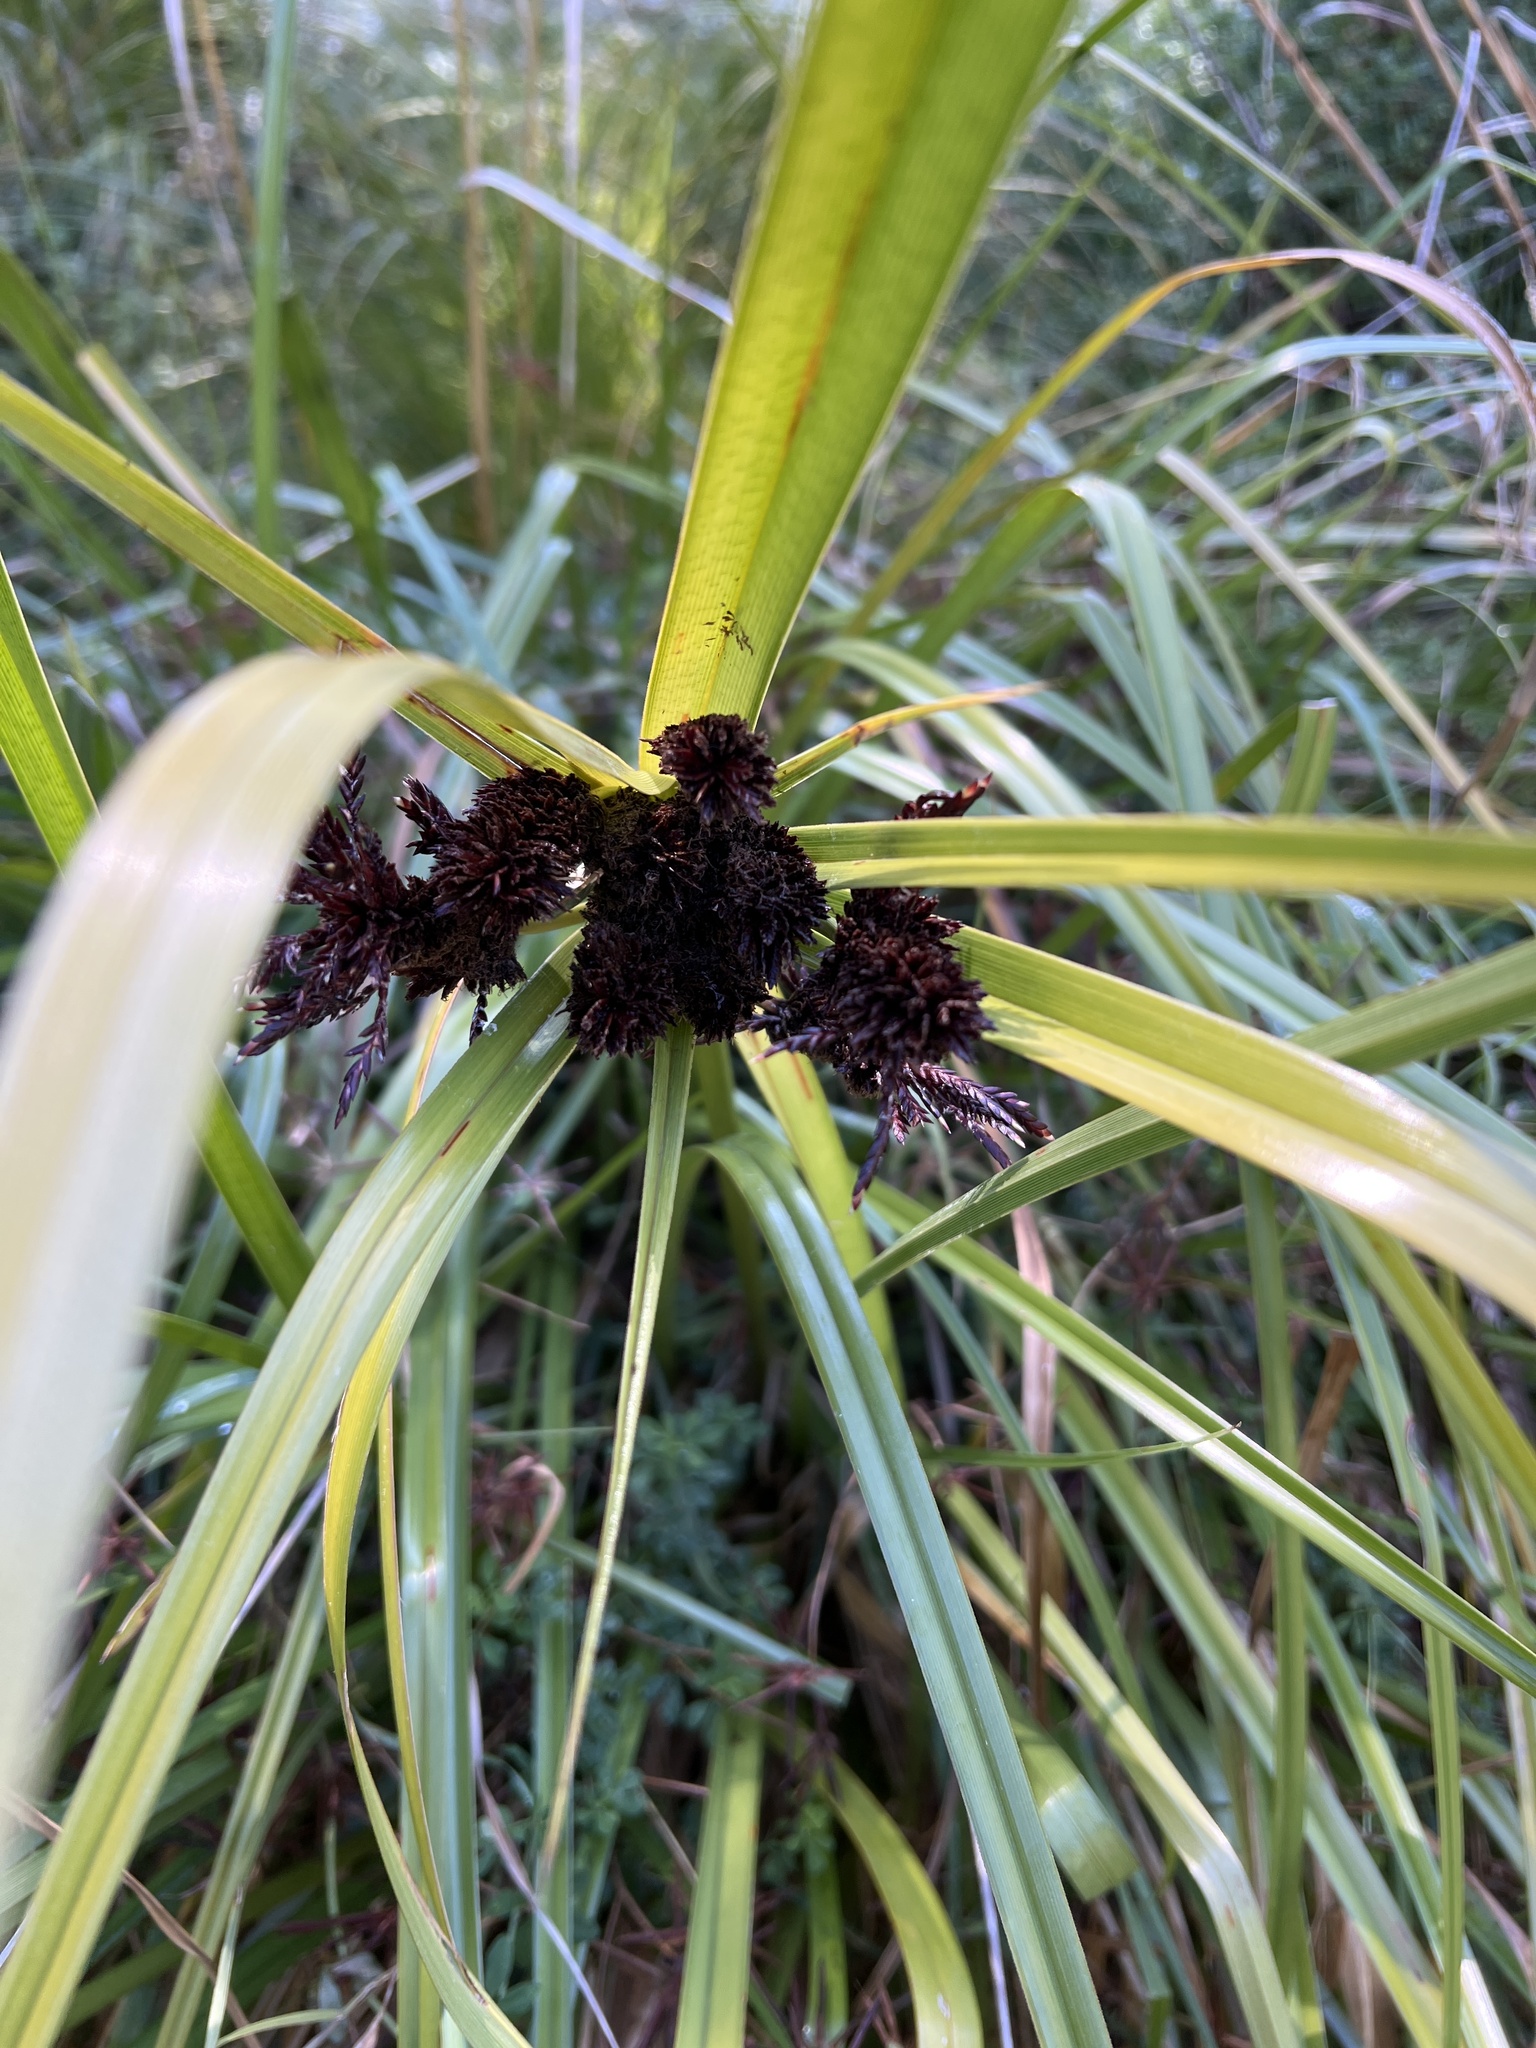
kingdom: Plantae
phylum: Tracheophyta
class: Liliopsida
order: Poales
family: Cyperaceae
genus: Cyperus
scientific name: Cyperus ustulatus
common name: Giant umbrella-sedge
